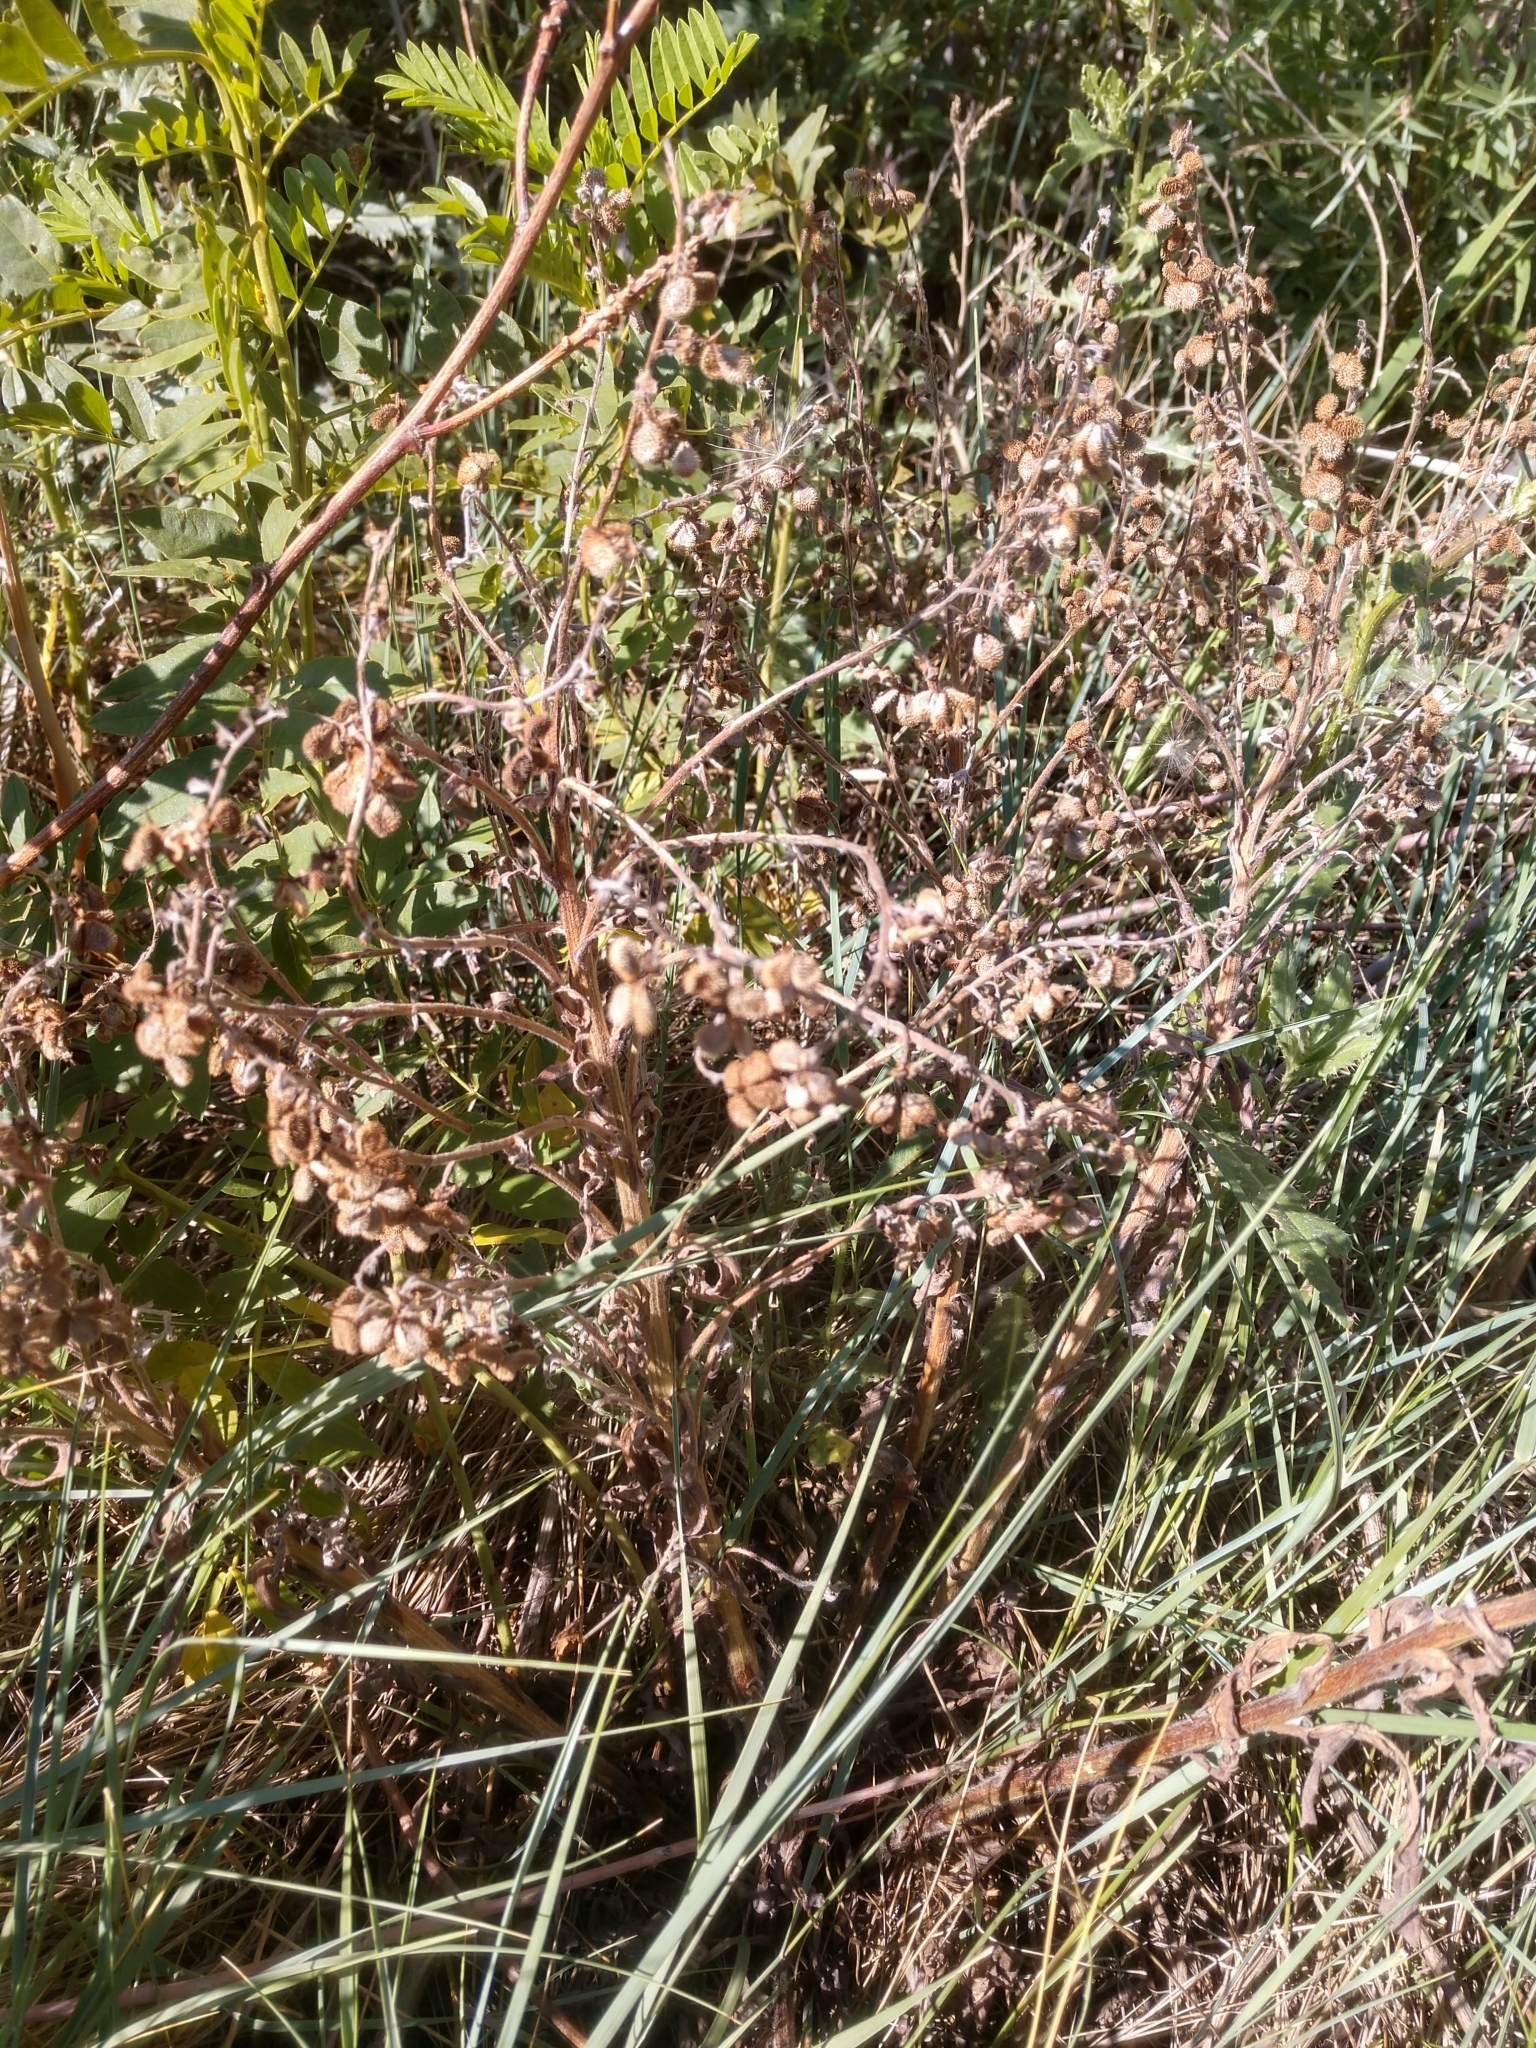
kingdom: Plantae
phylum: Tracheophyta
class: Magnoliopsida
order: Boraginales
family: Boraginaceae
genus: Cynoglossum
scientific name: Cynoglossum officinale
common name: Hound's-tongue
